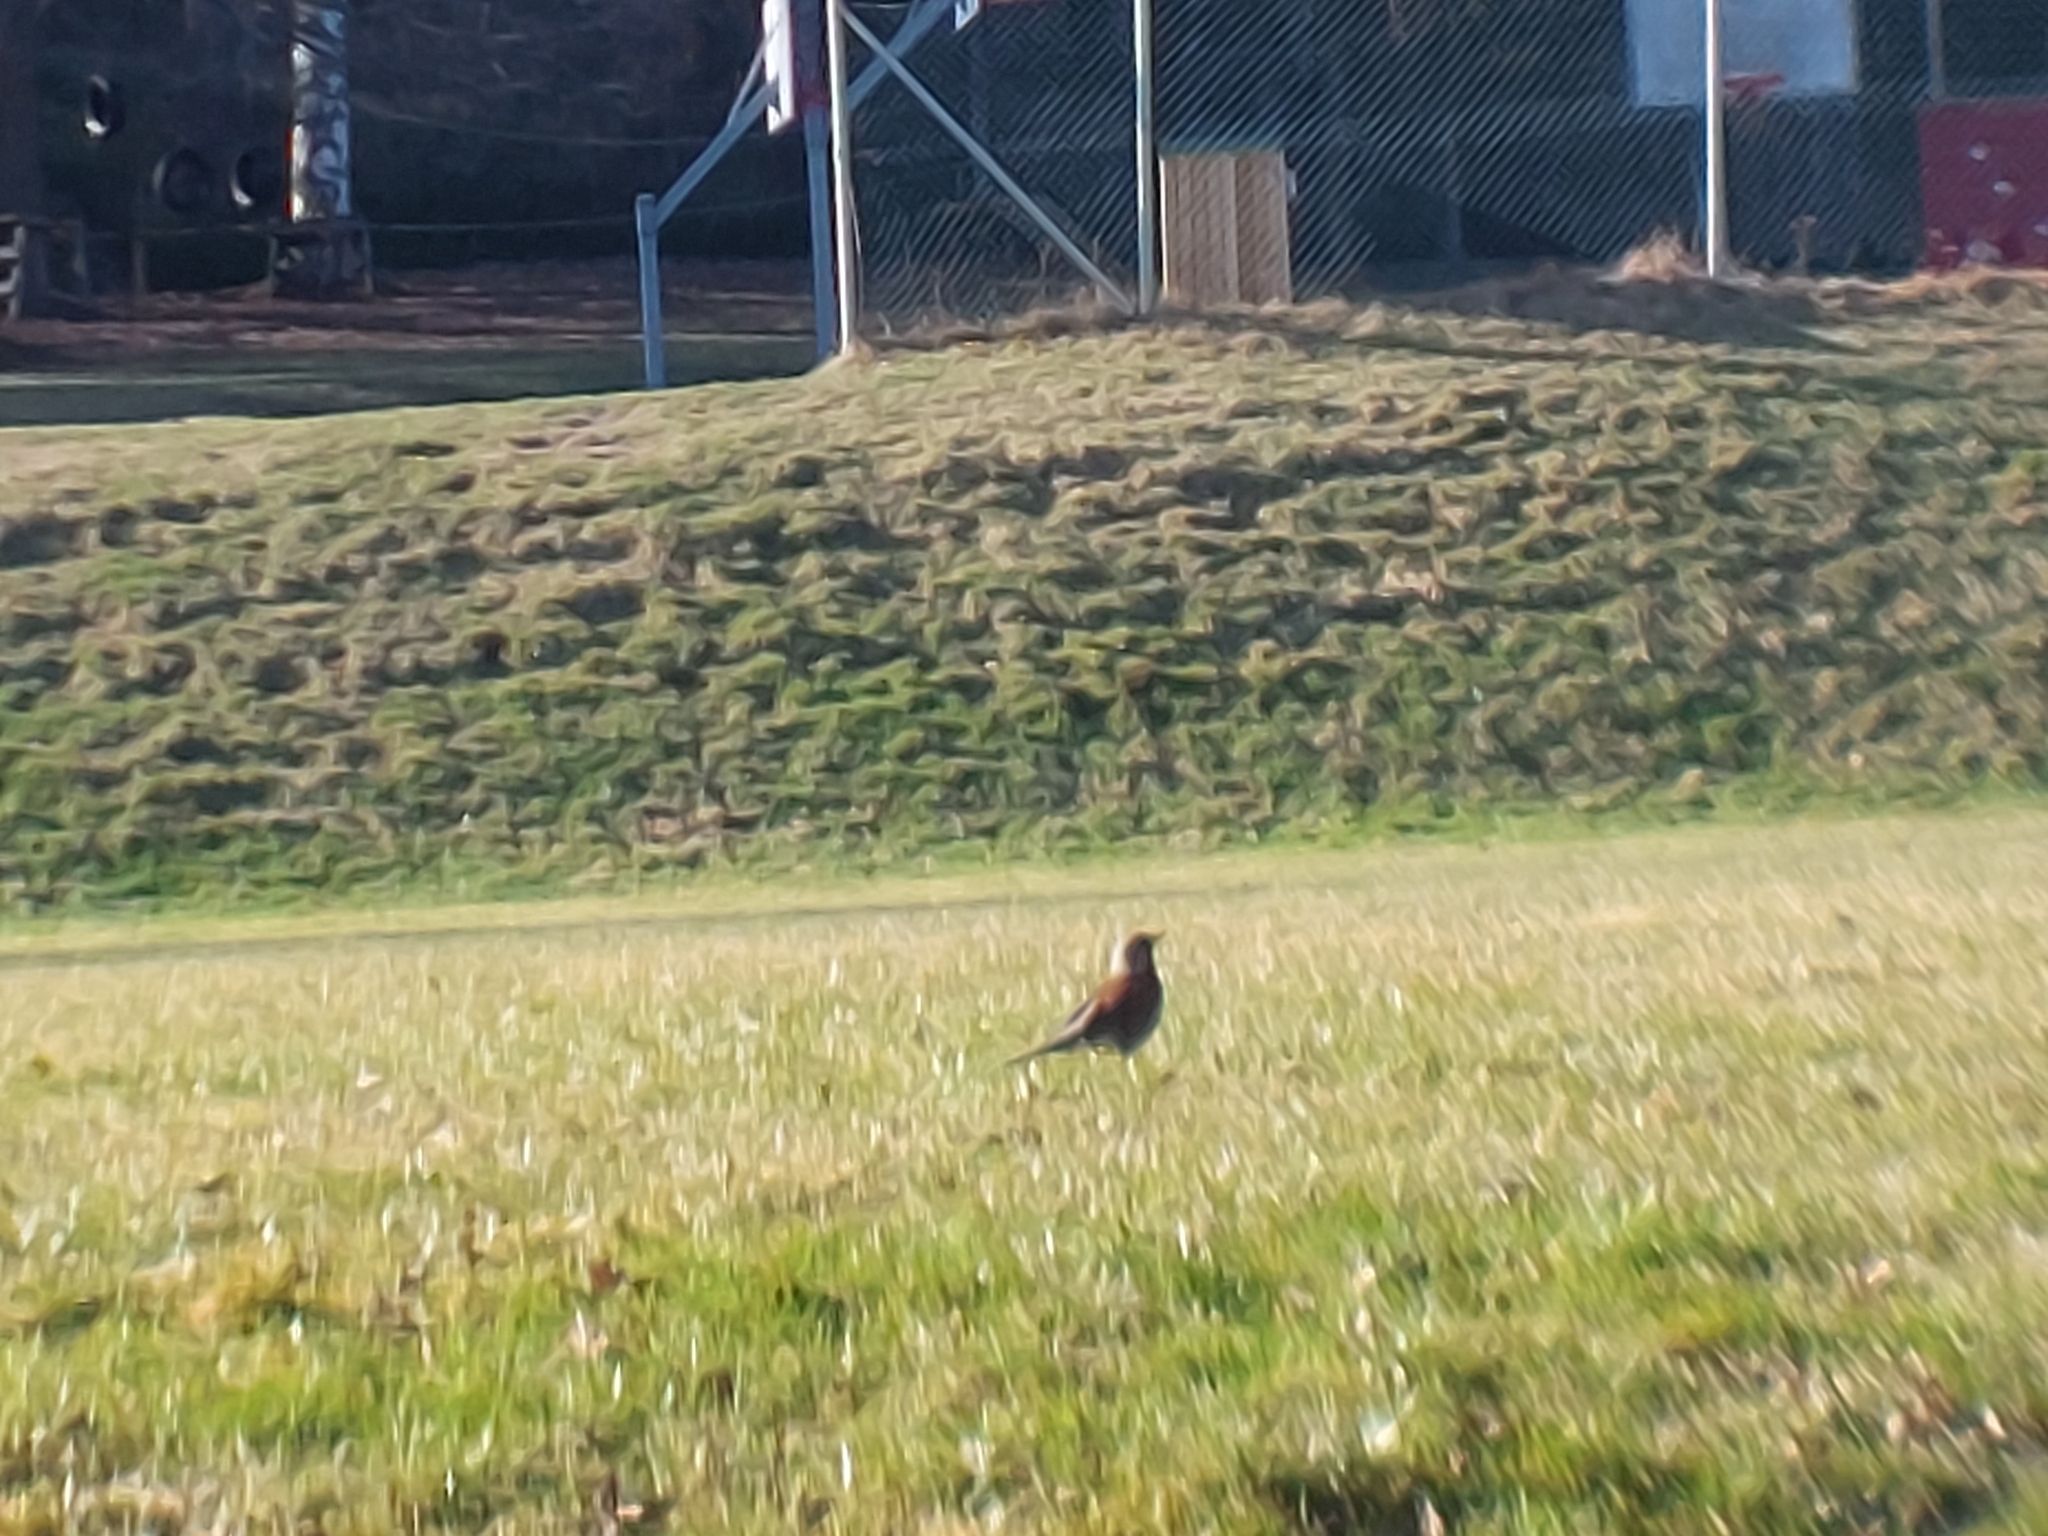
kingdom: Animalia
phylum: Chordata
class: Aves
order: Passeriformes
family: Turdidae
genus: Turdus
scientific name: Turdus pilaris
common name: Fieldfare
